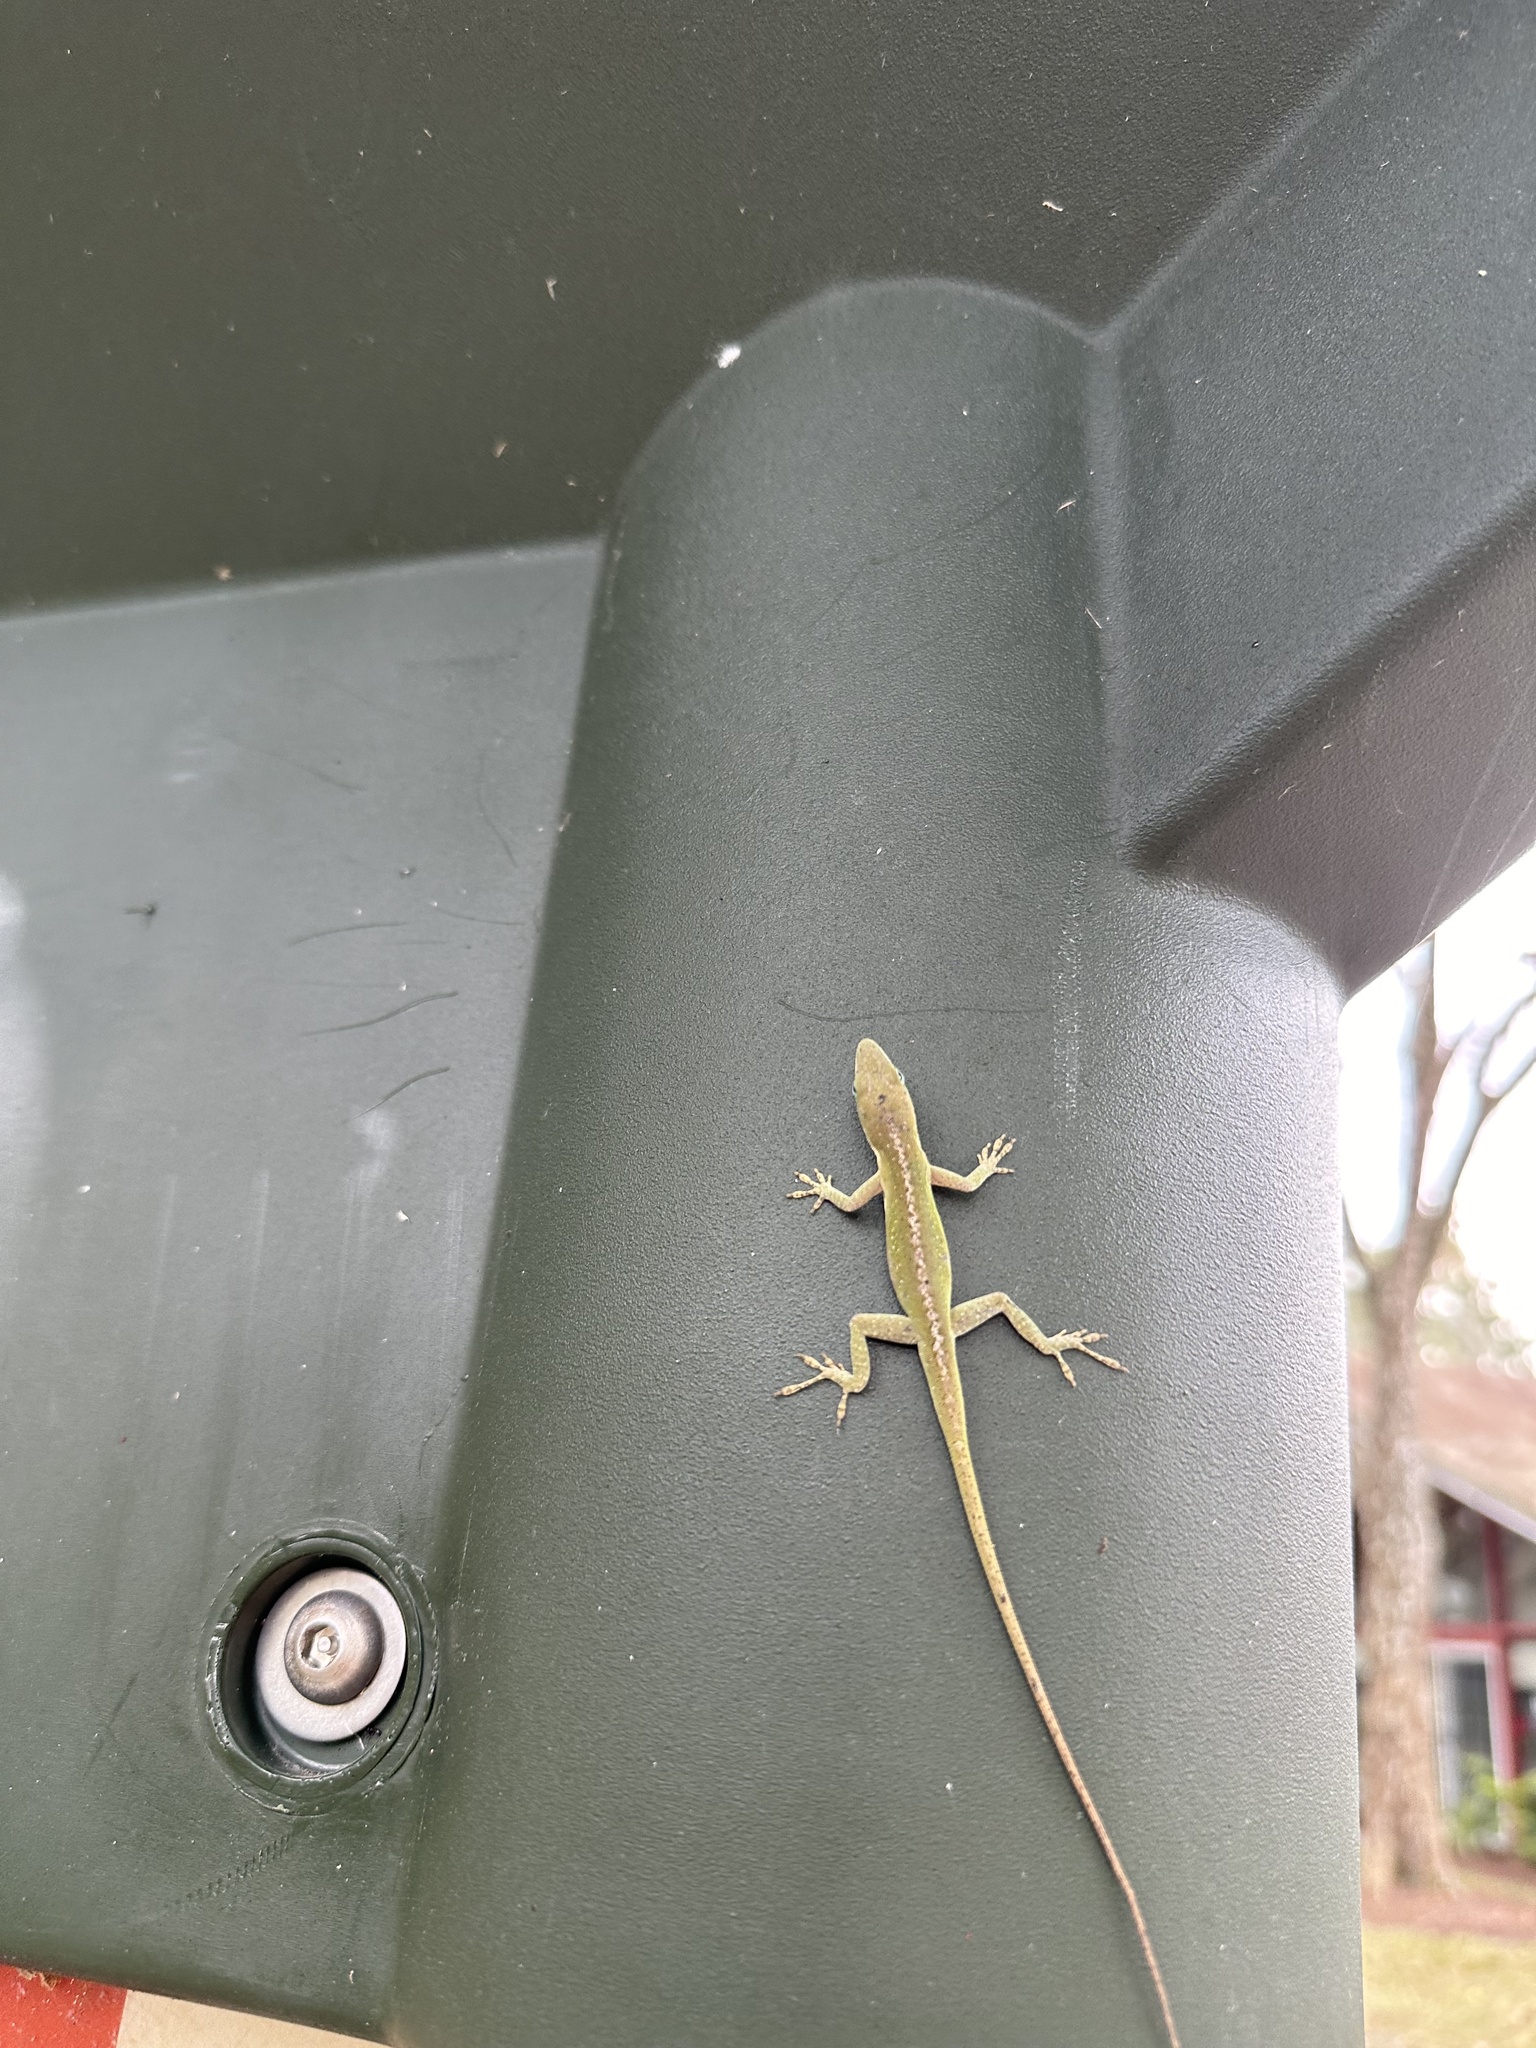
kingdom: Animalia
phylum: Chordata
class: Squamata
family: Dactyloidae
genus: Anolis
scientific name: Anolis carolinensis
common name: Green anole
